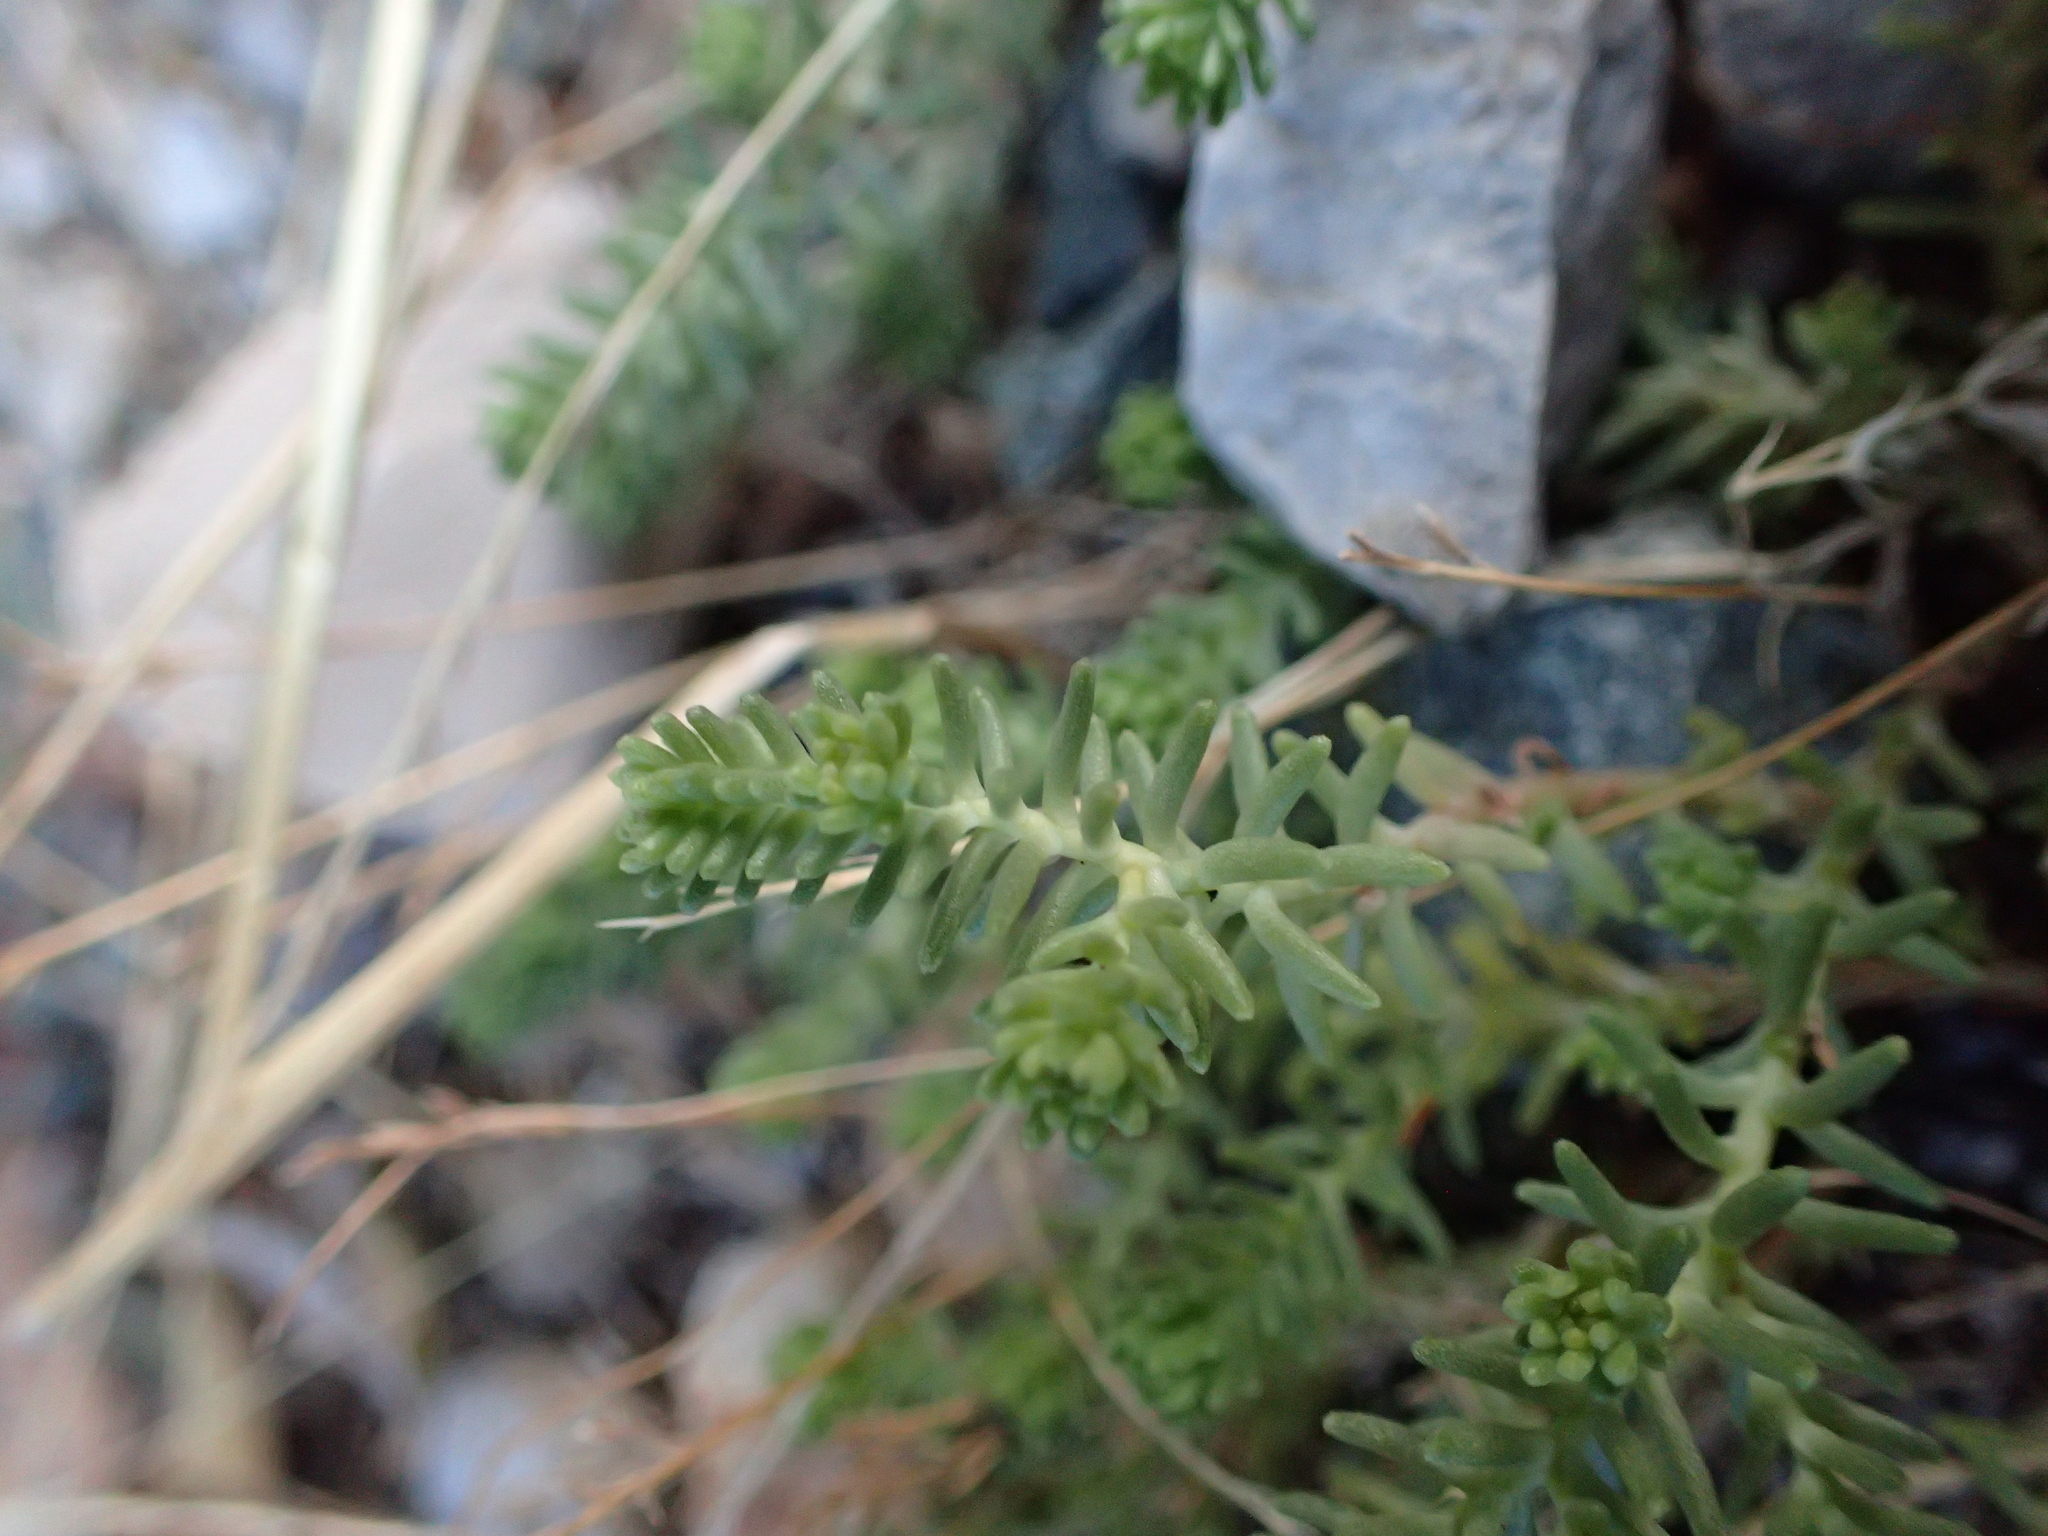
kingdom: Plantae
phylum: Tracheophyta
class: Magnoliopsida
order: Saxifragales
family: Crassulaceae
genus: Sedum
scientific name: Sedum sexangulare
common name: Tasteless stonecrop
